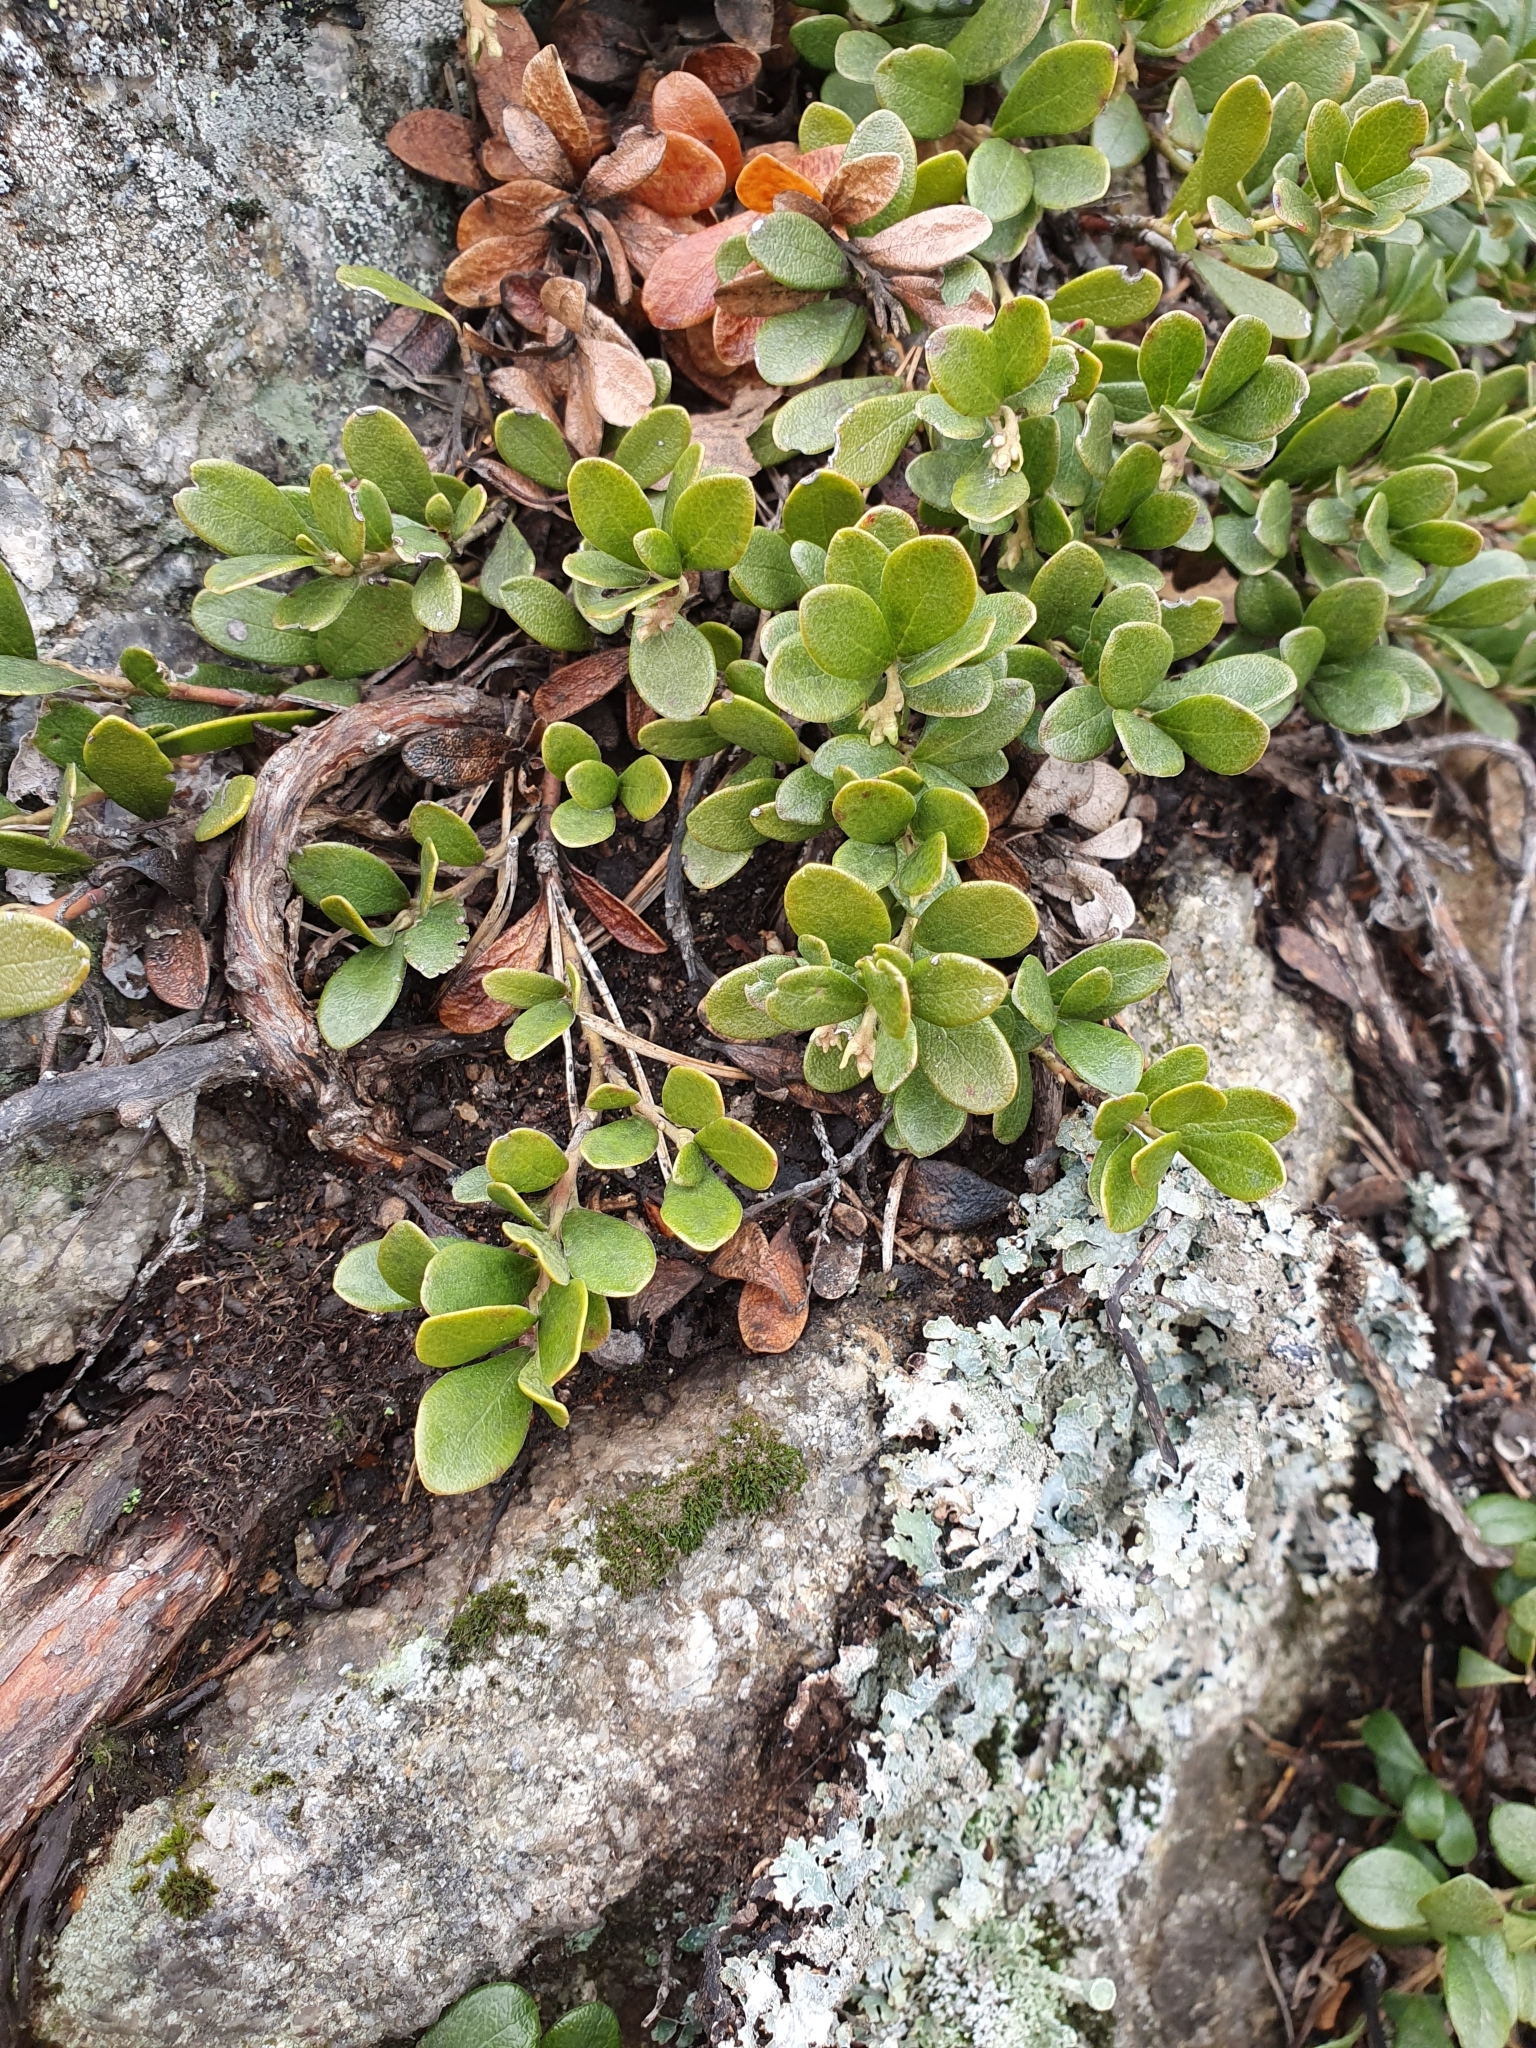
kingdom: Plantae
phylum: Tracheophyta
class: Magnoliopsida
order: Ericales
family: Ericaceae
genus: Arctostaphylos
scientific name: Arctostaphylos uva-ursi
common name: Bearberry
